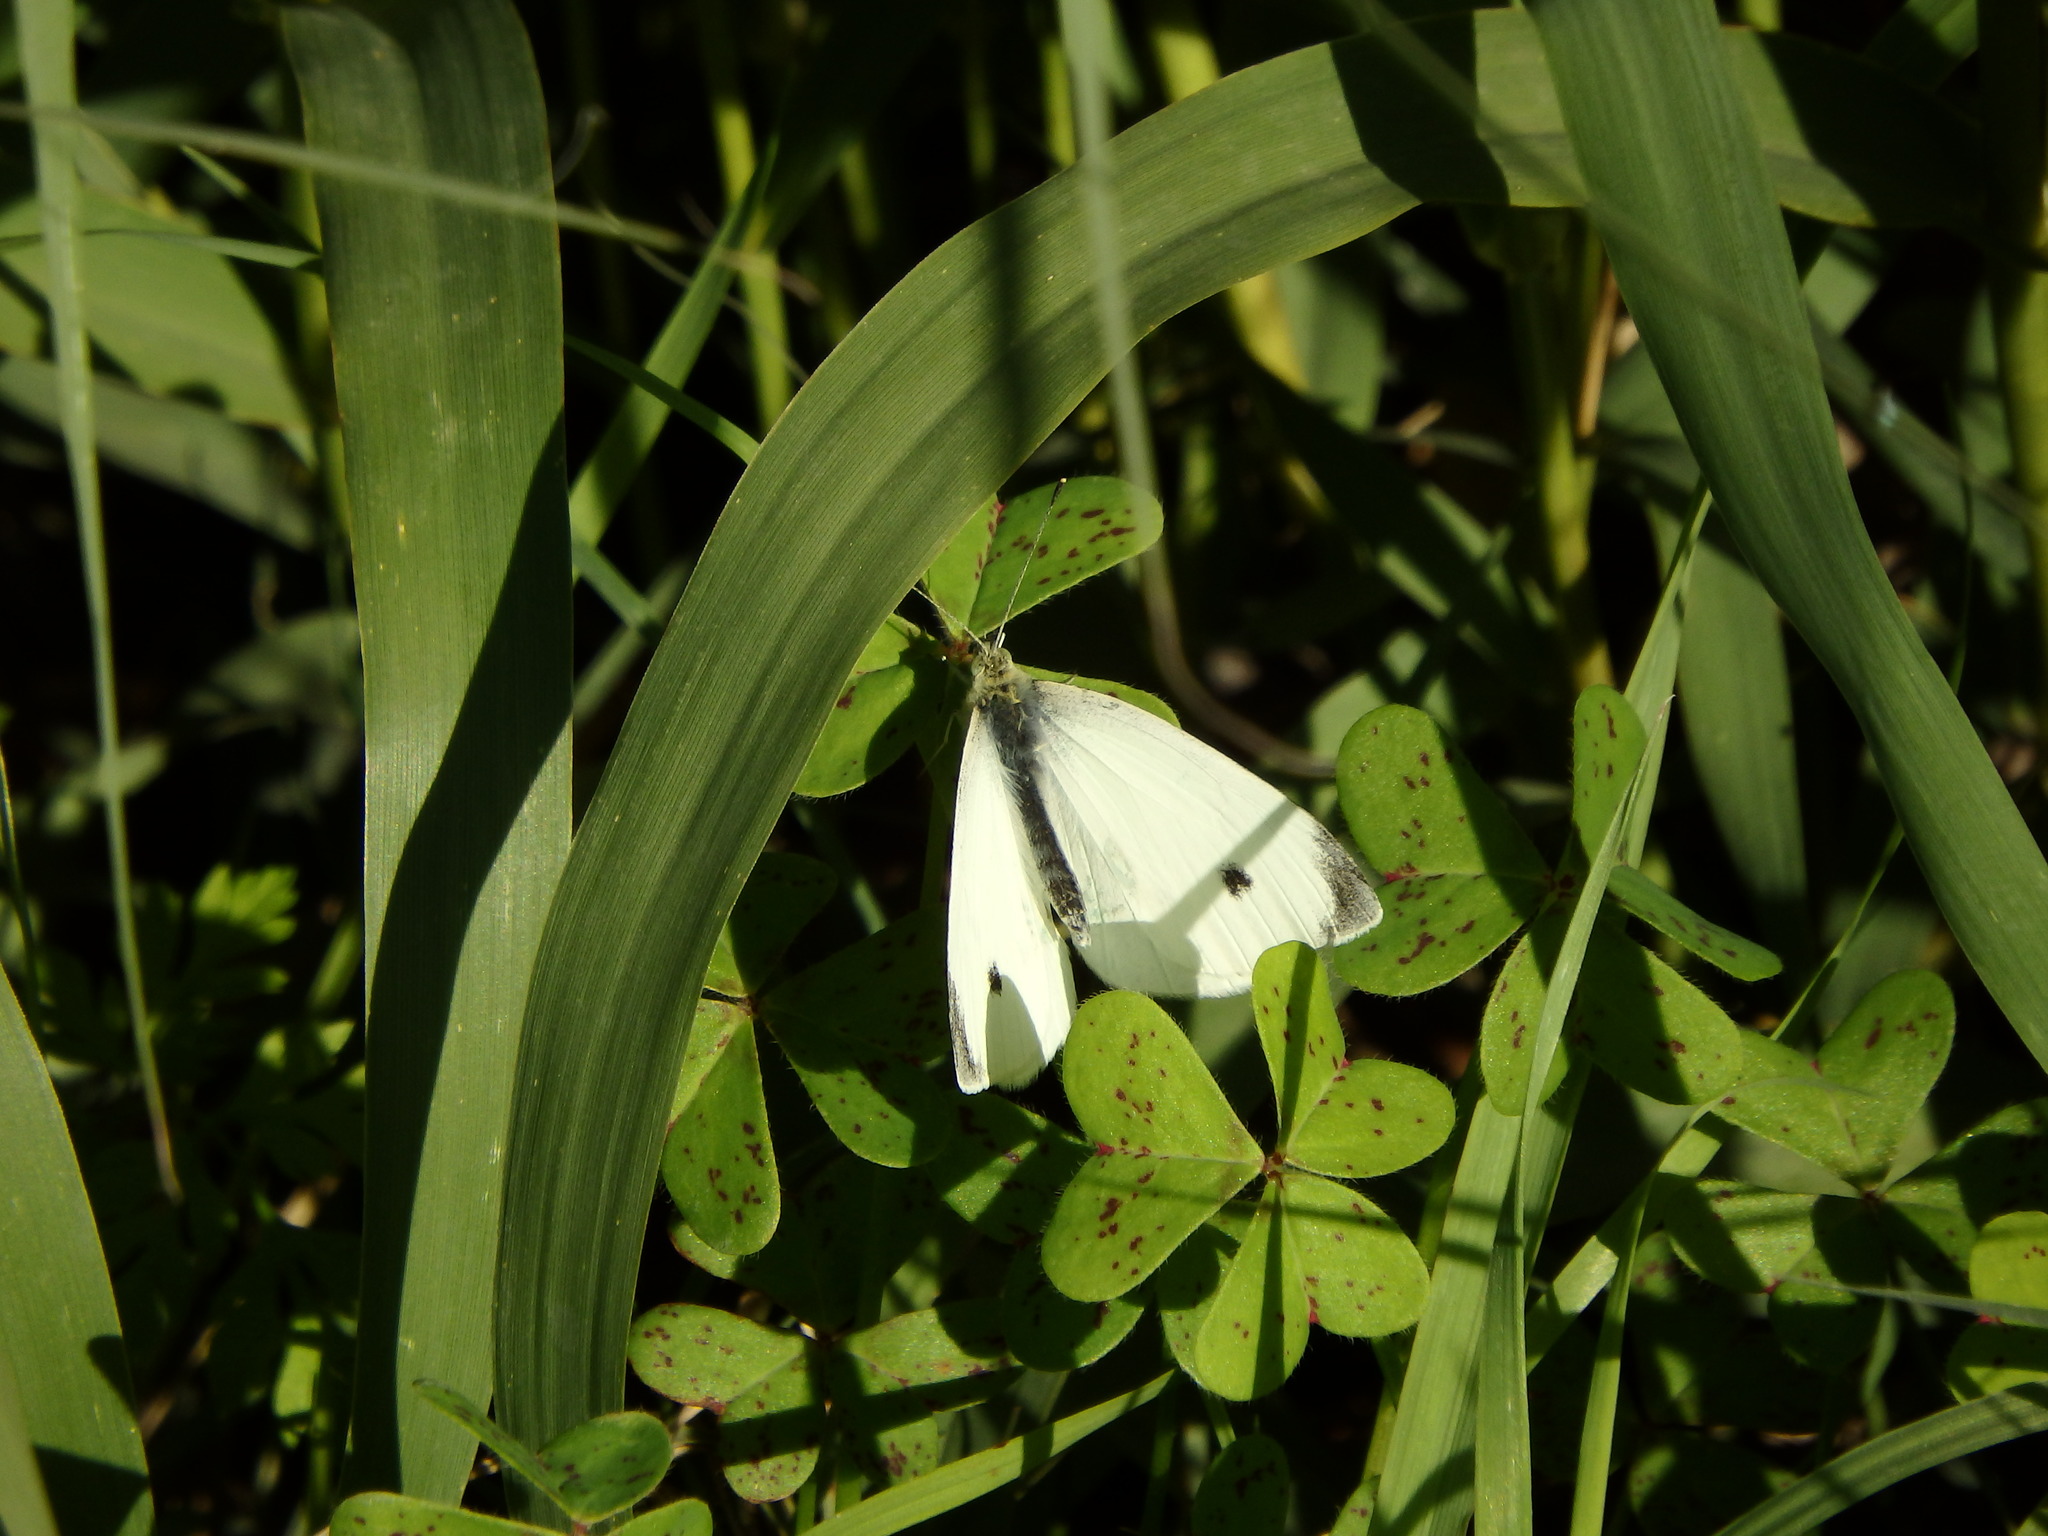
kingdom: Animalia
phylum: Arthropoda
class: Insecta
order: Lepidoptera
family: Pieridae
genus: Pieris
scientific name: Pieris rapae
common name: Small white
